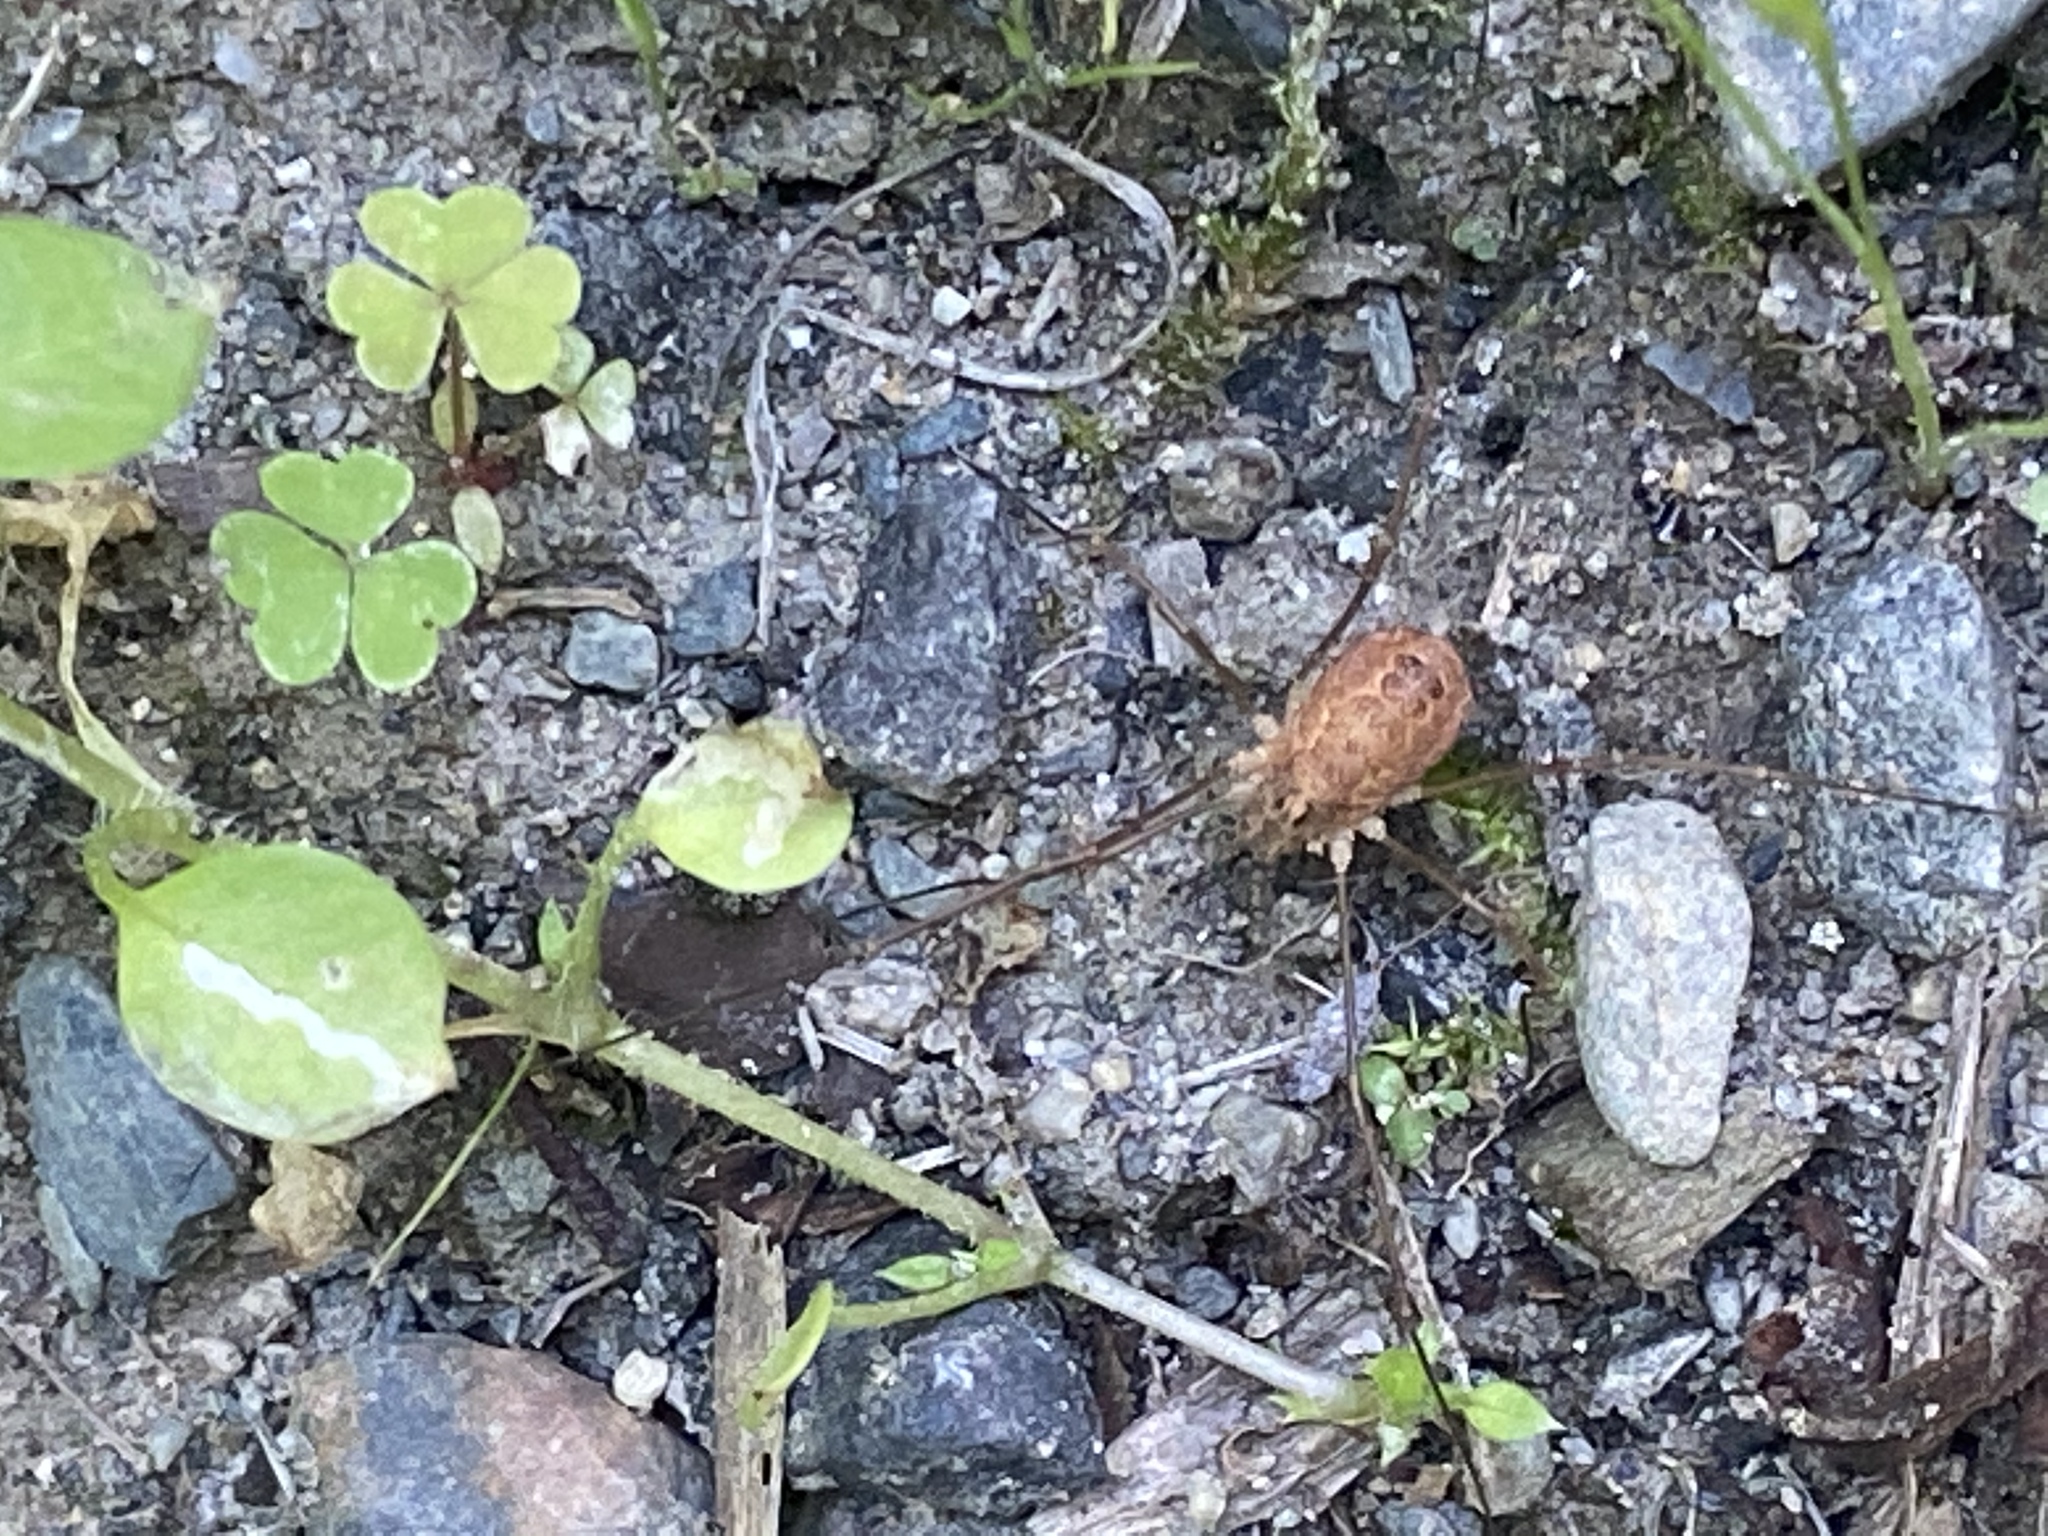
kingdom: Animalia
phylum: Arthropoda
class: Arachnida
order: Opiliones
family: Phalangiidae
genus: Rilaena
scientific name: Rilaena triangularis
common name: Spring harvestman
